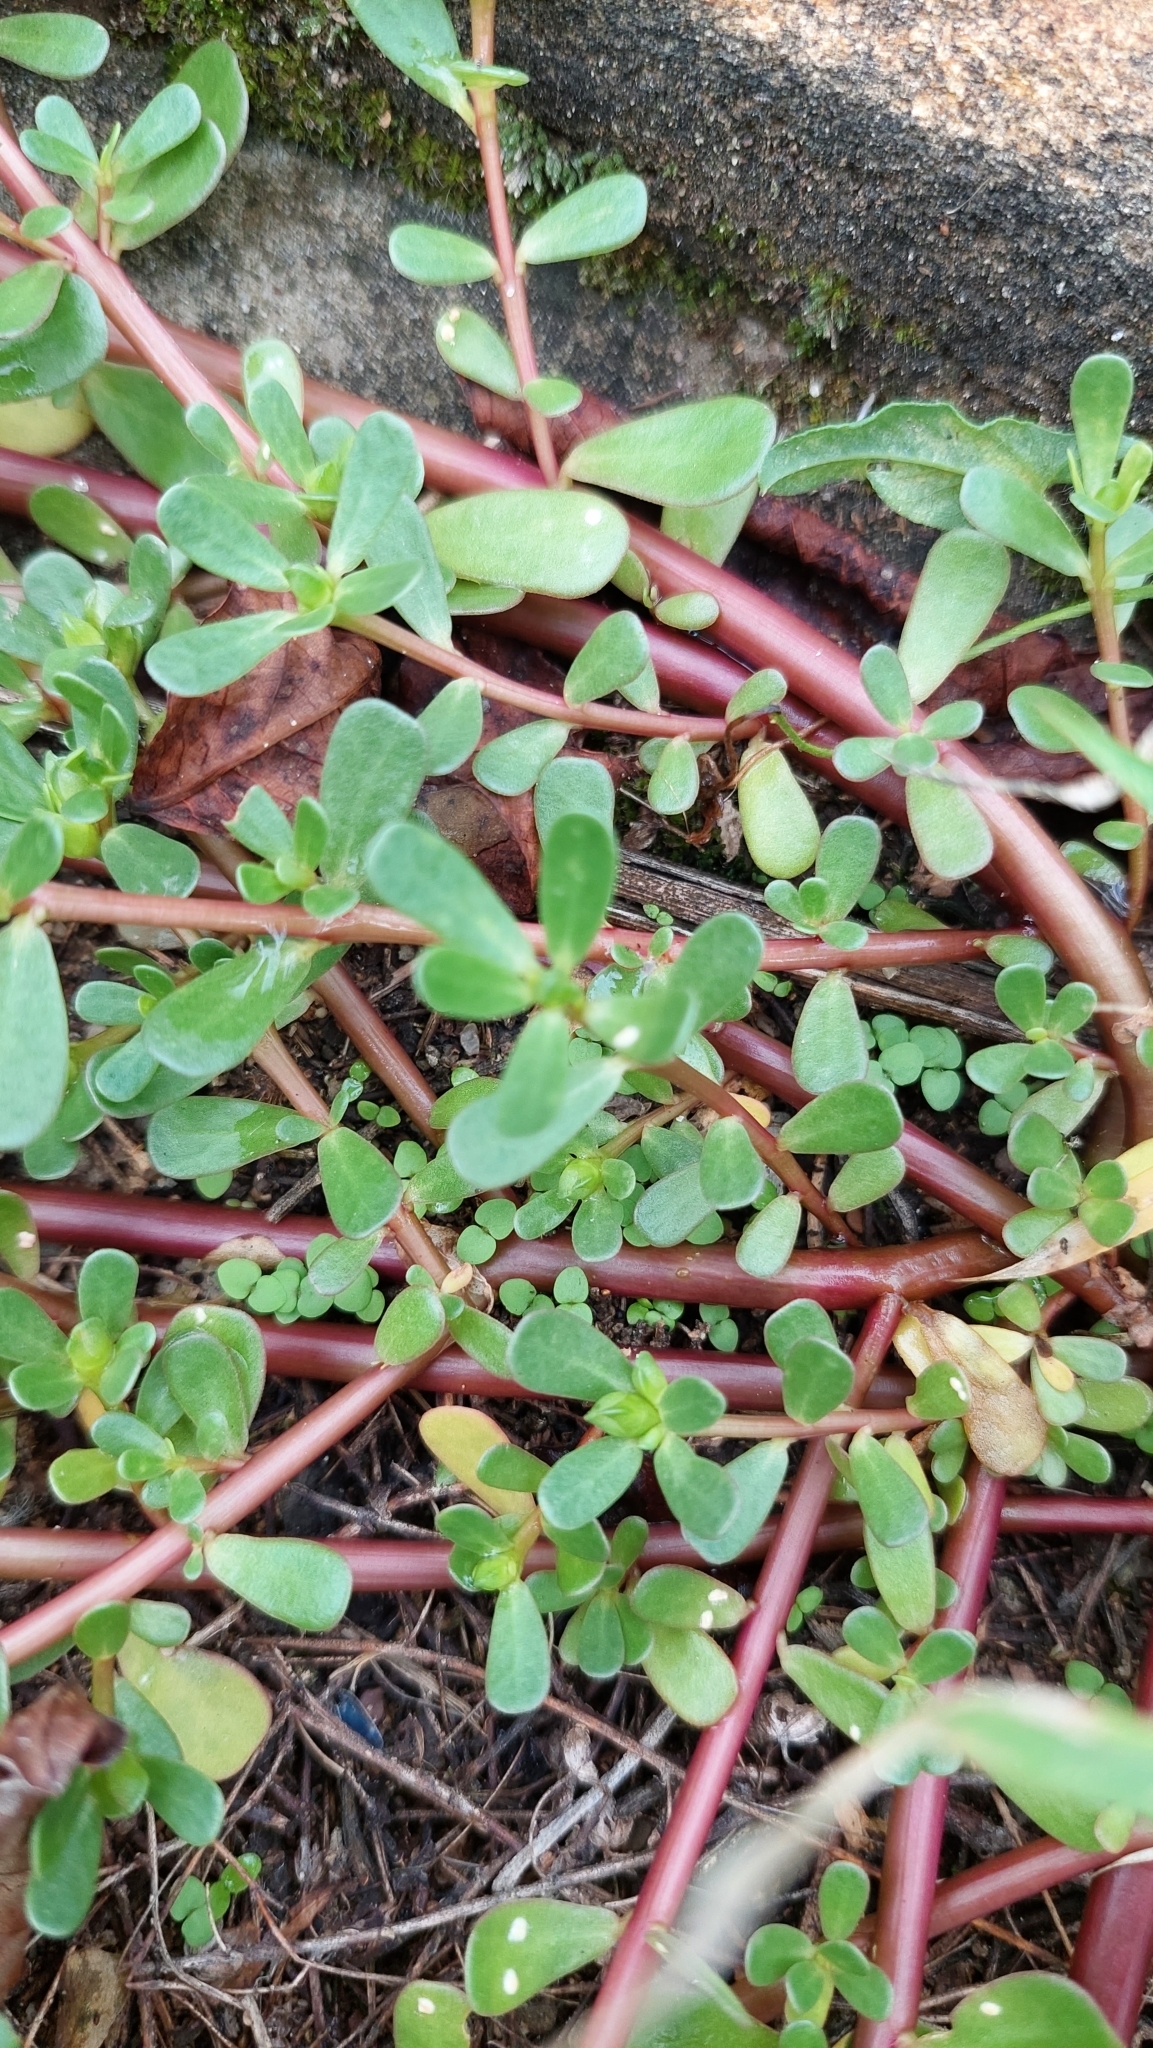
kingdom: Plantae
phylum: Tracheophyta
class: Magnoliopsida
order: Caryophyllales
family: Portulacaceae
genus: Portulaca
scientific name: Portulaca oleracea
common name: Common purslane
